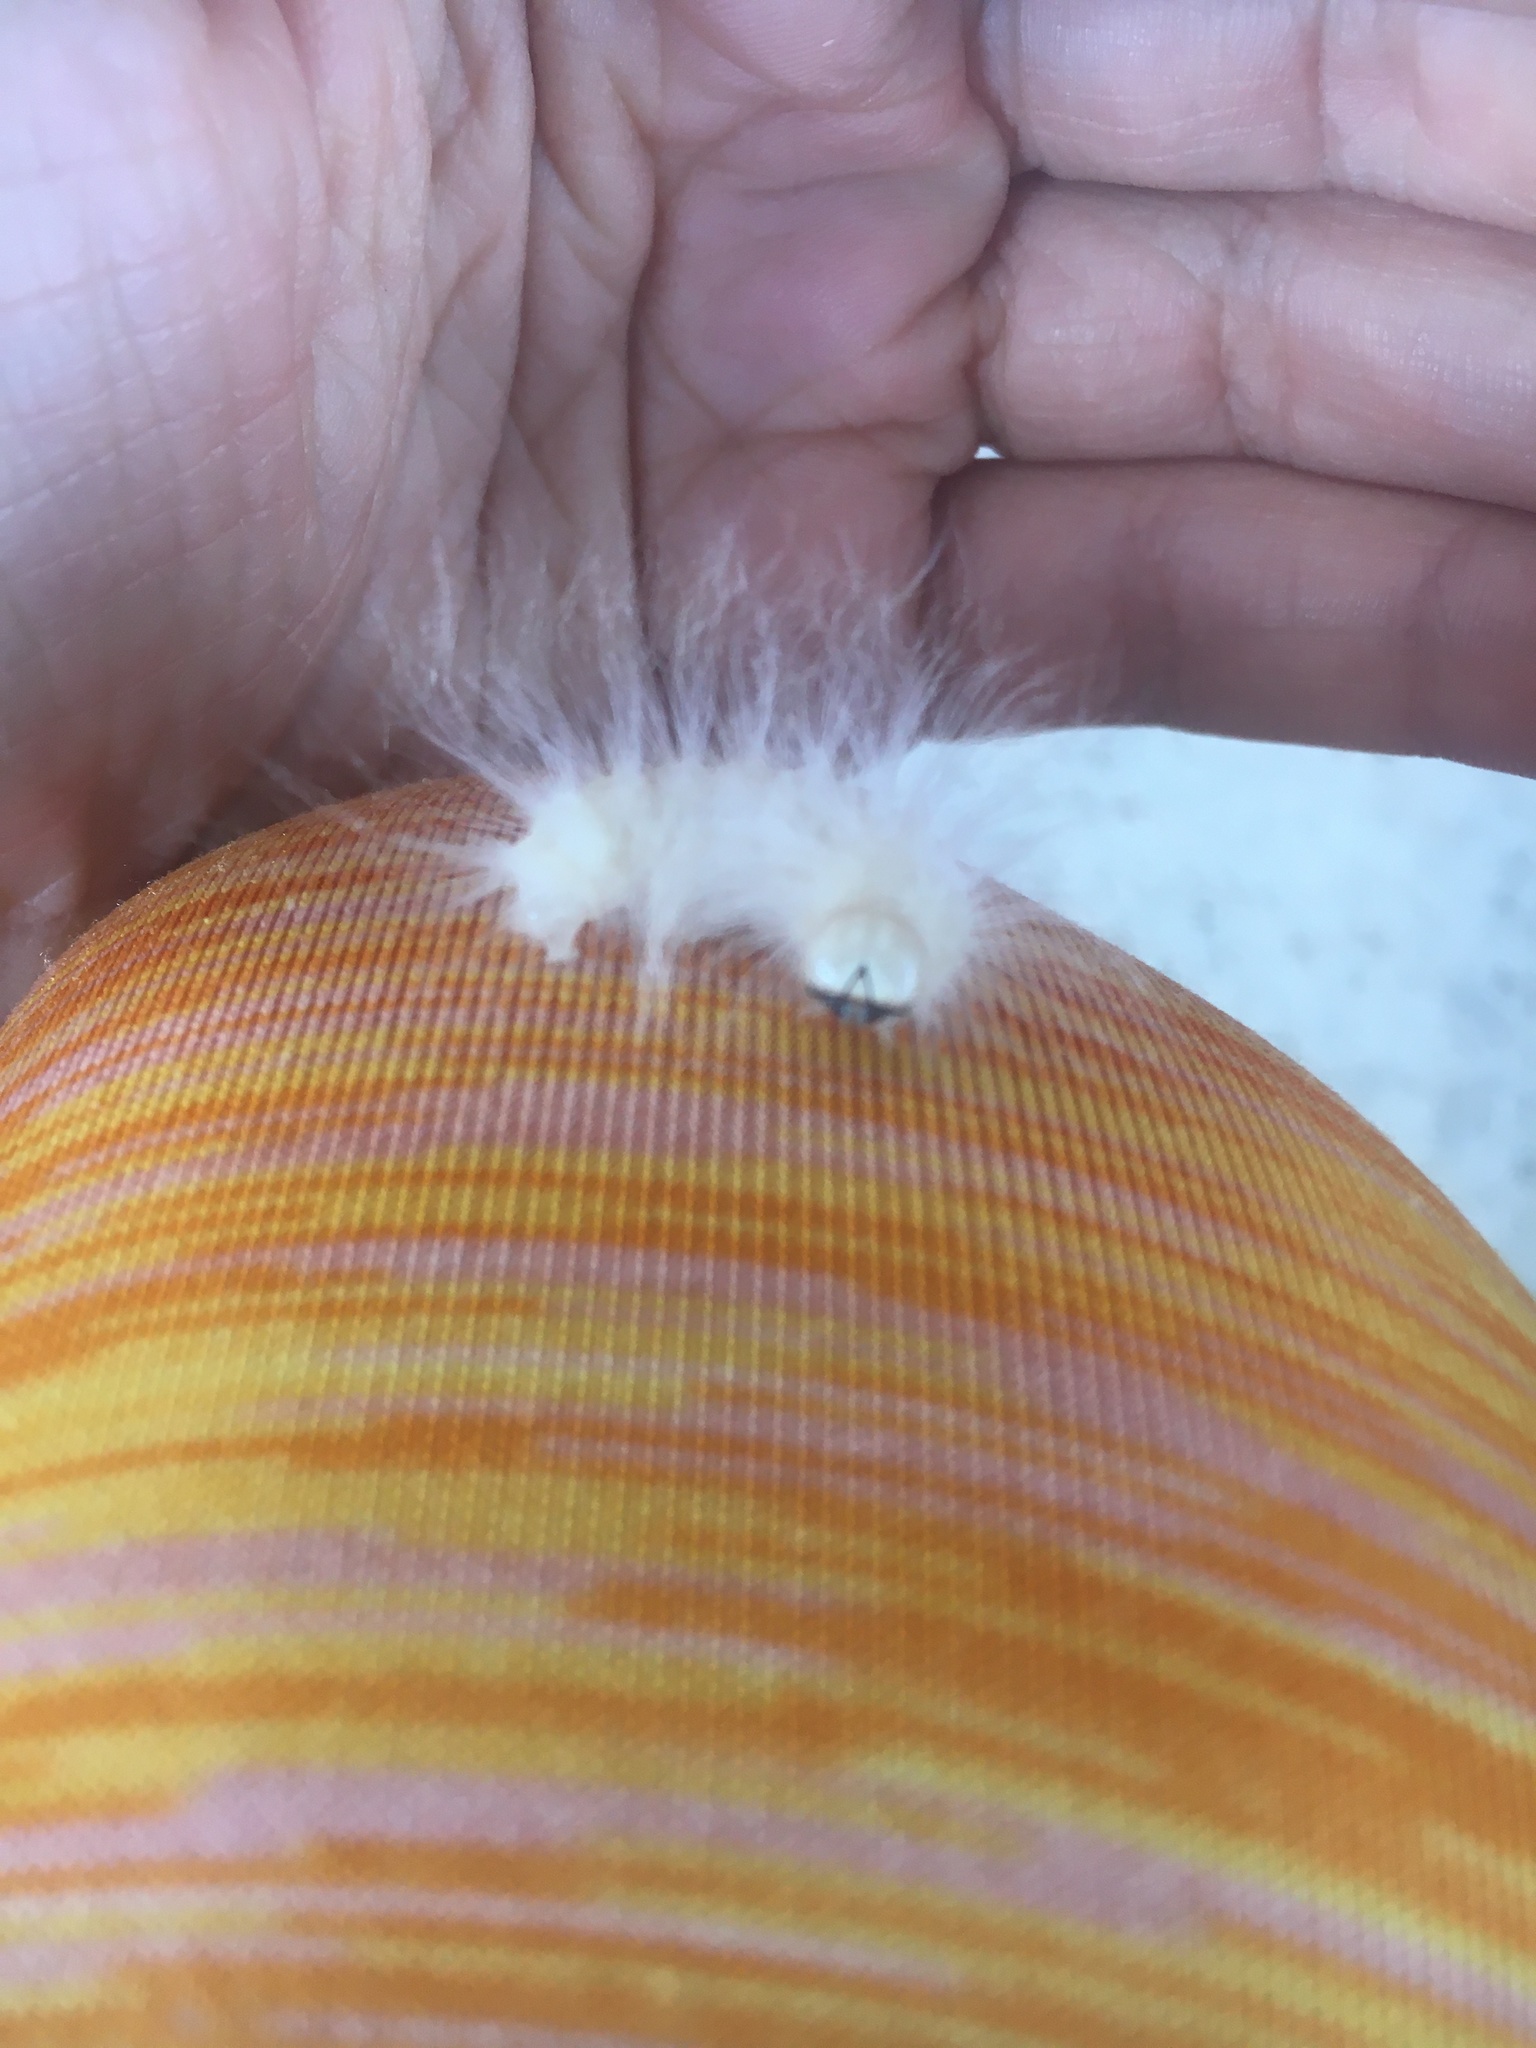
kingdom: Animalia
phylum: Arthropoda
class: Insecta
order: Lepidoptera
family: Noctuidae
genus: Charadra
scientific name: Charadra deridens
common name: Marbled tuffet
